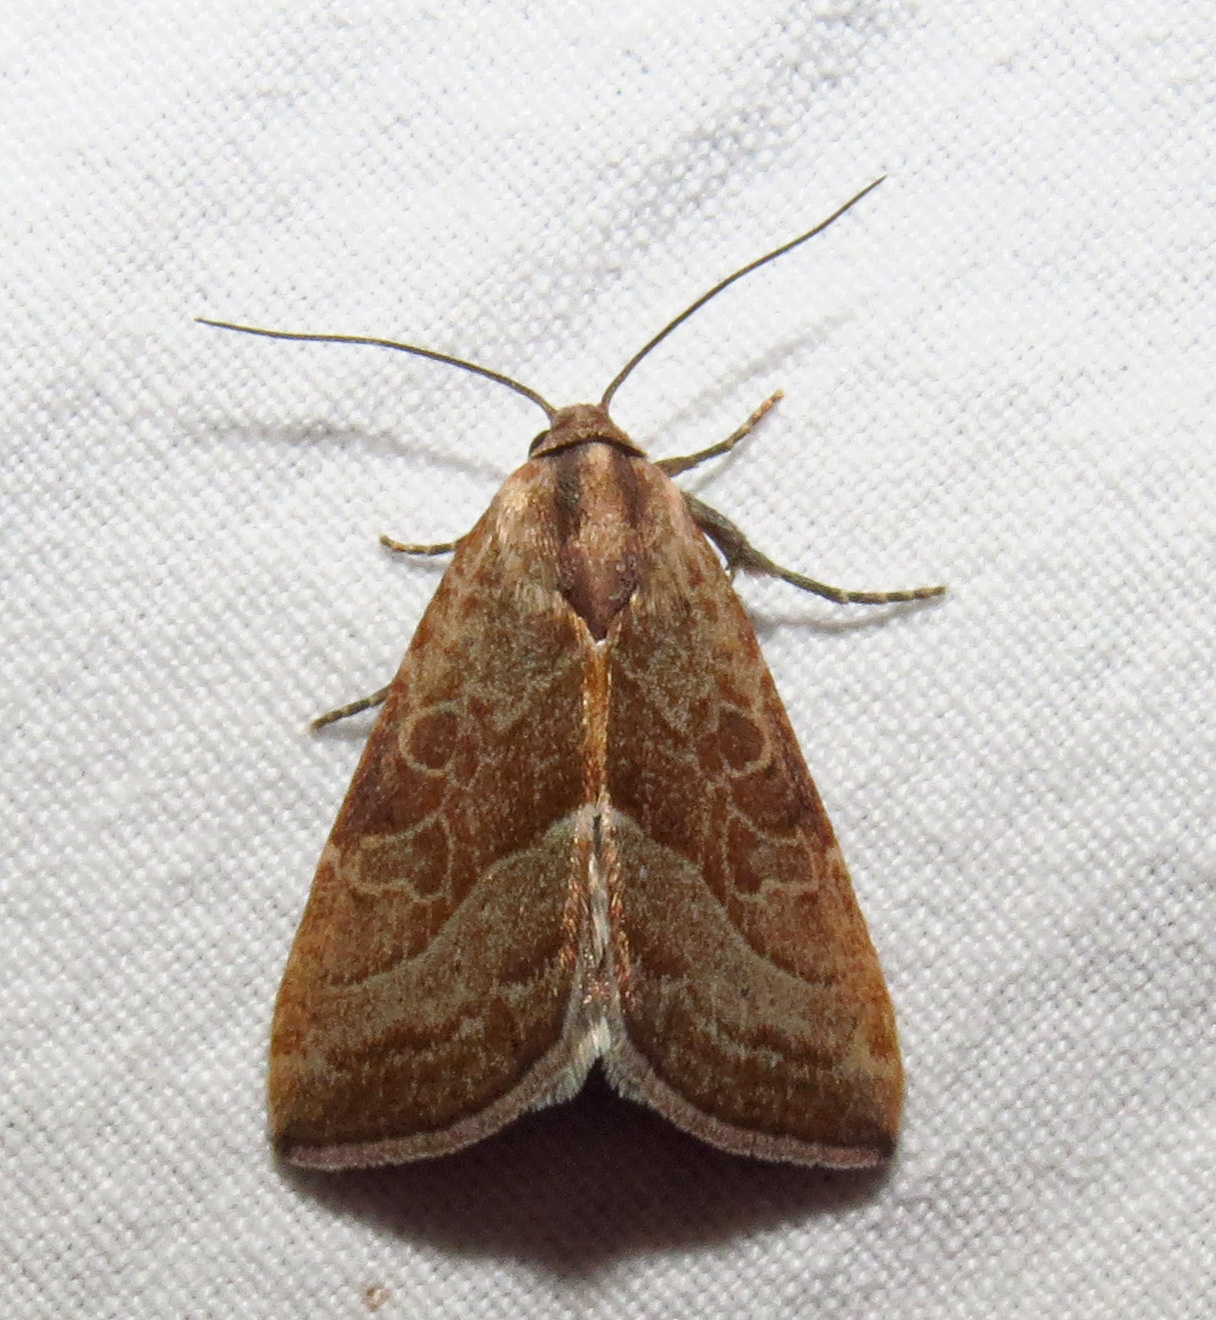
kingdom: Animalia
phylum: Arthropoda
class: Insecta
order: Lepidoptera
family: Noctuidae
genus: Galgula
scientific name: Galgula partita
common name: Wedgeling
